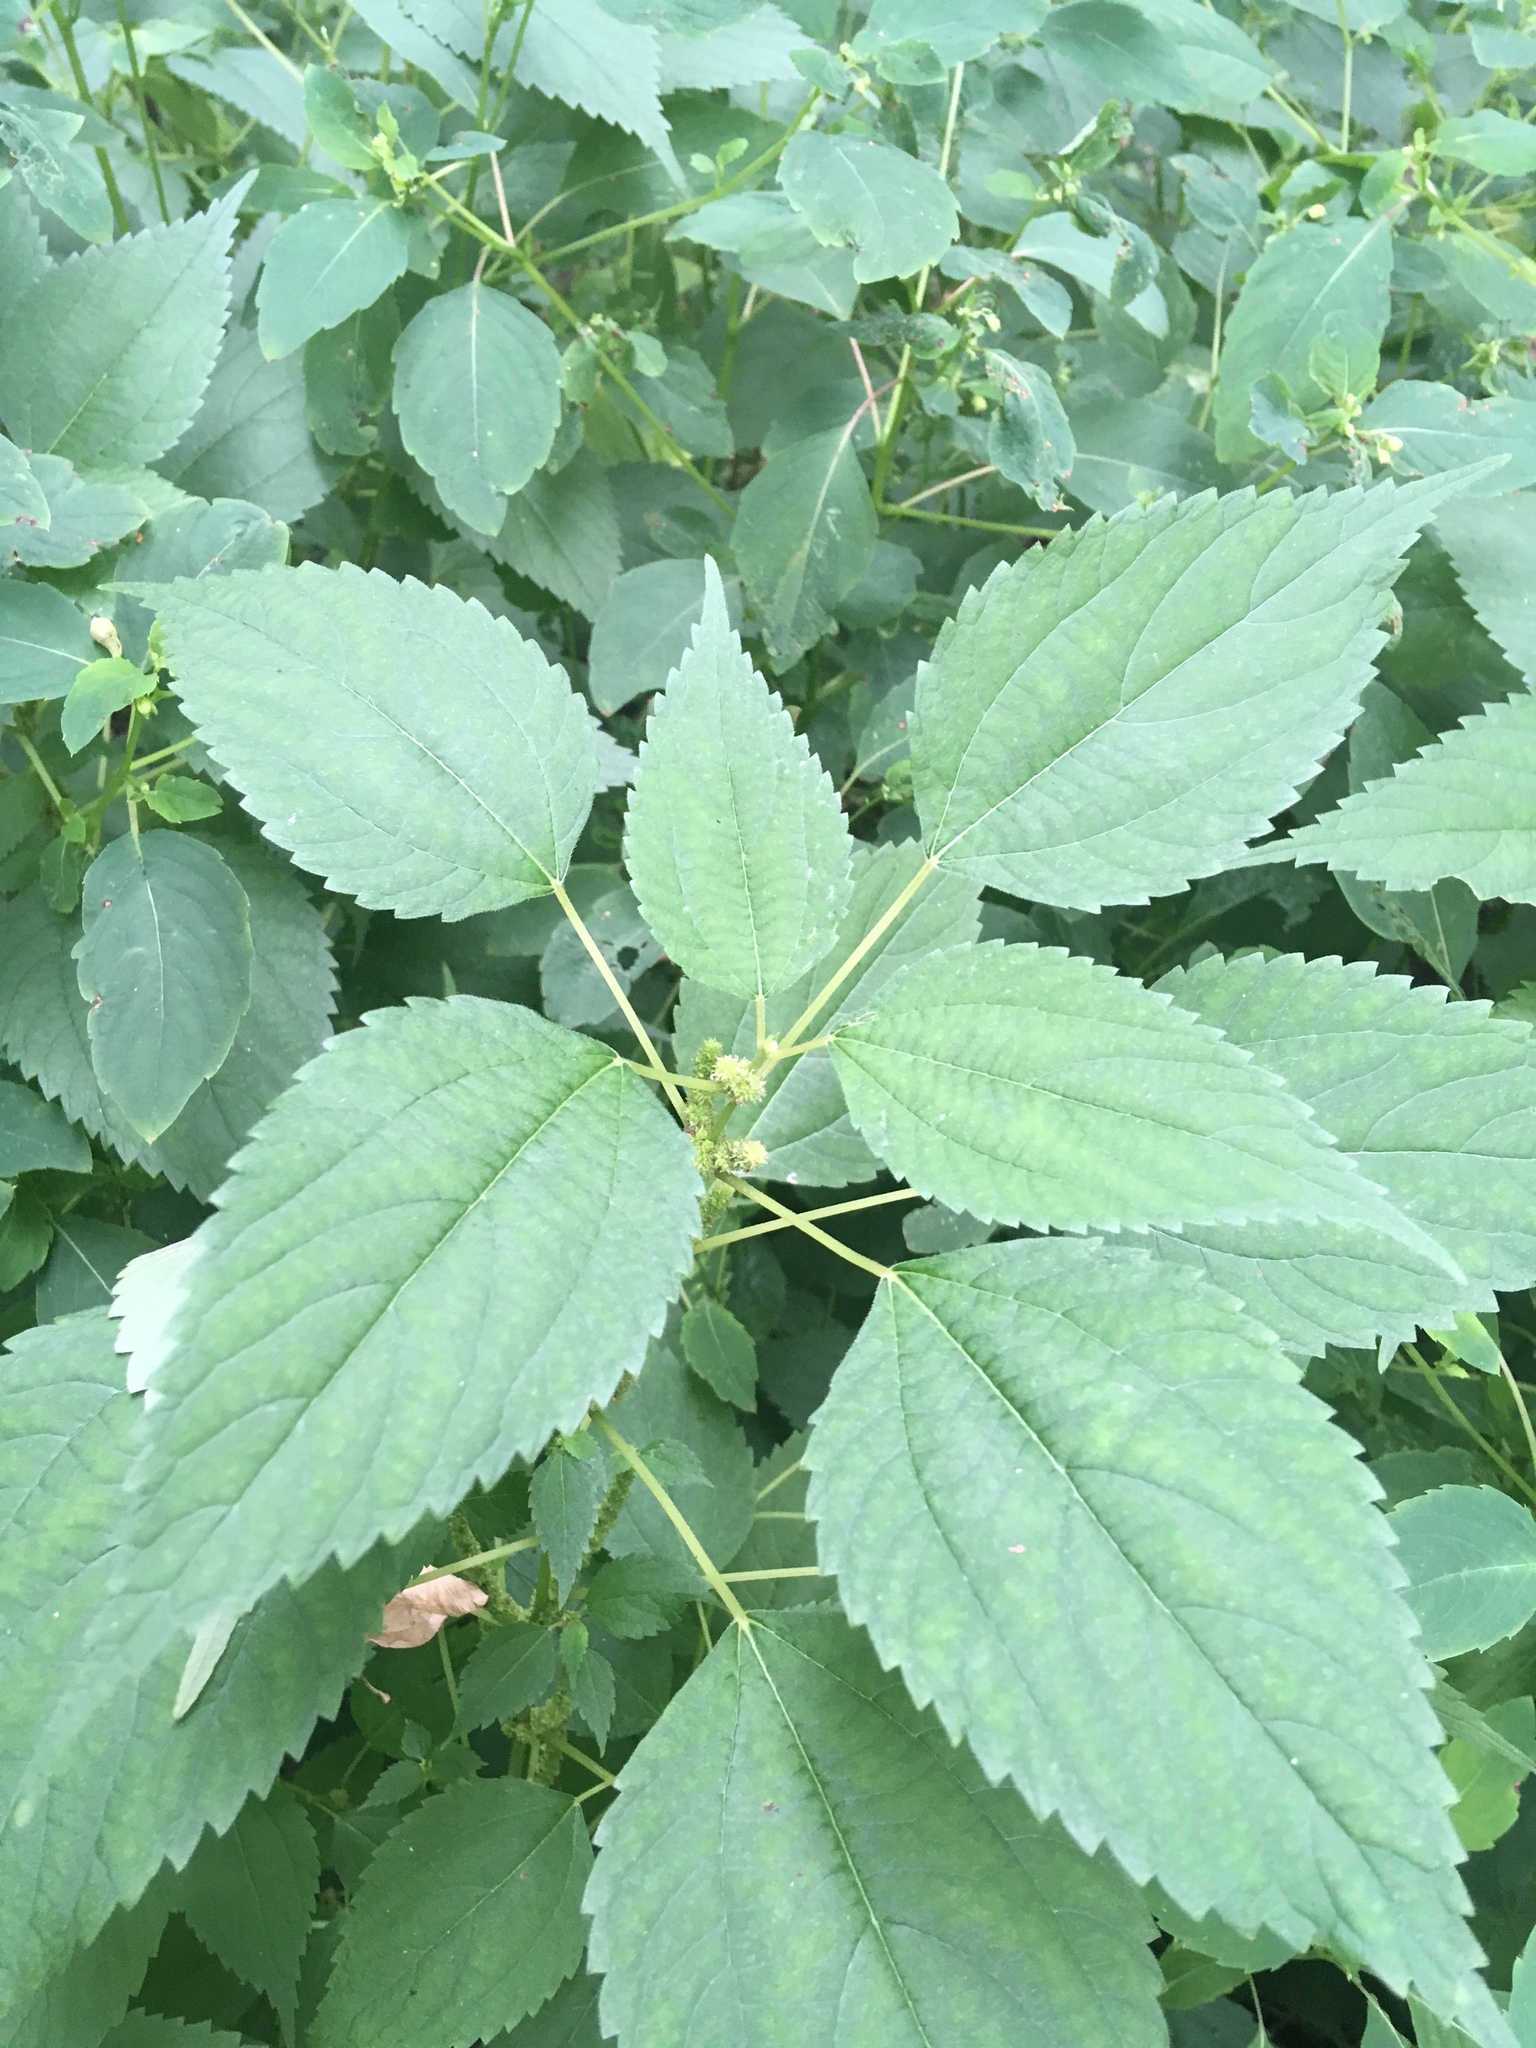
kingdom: Plantae
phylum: Tracheophyta
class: Magnoliopsida
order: Rosales
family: Urticaceae
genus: Boehmeria
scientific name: Boehmeria cylindrica
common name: Bog-hemp
